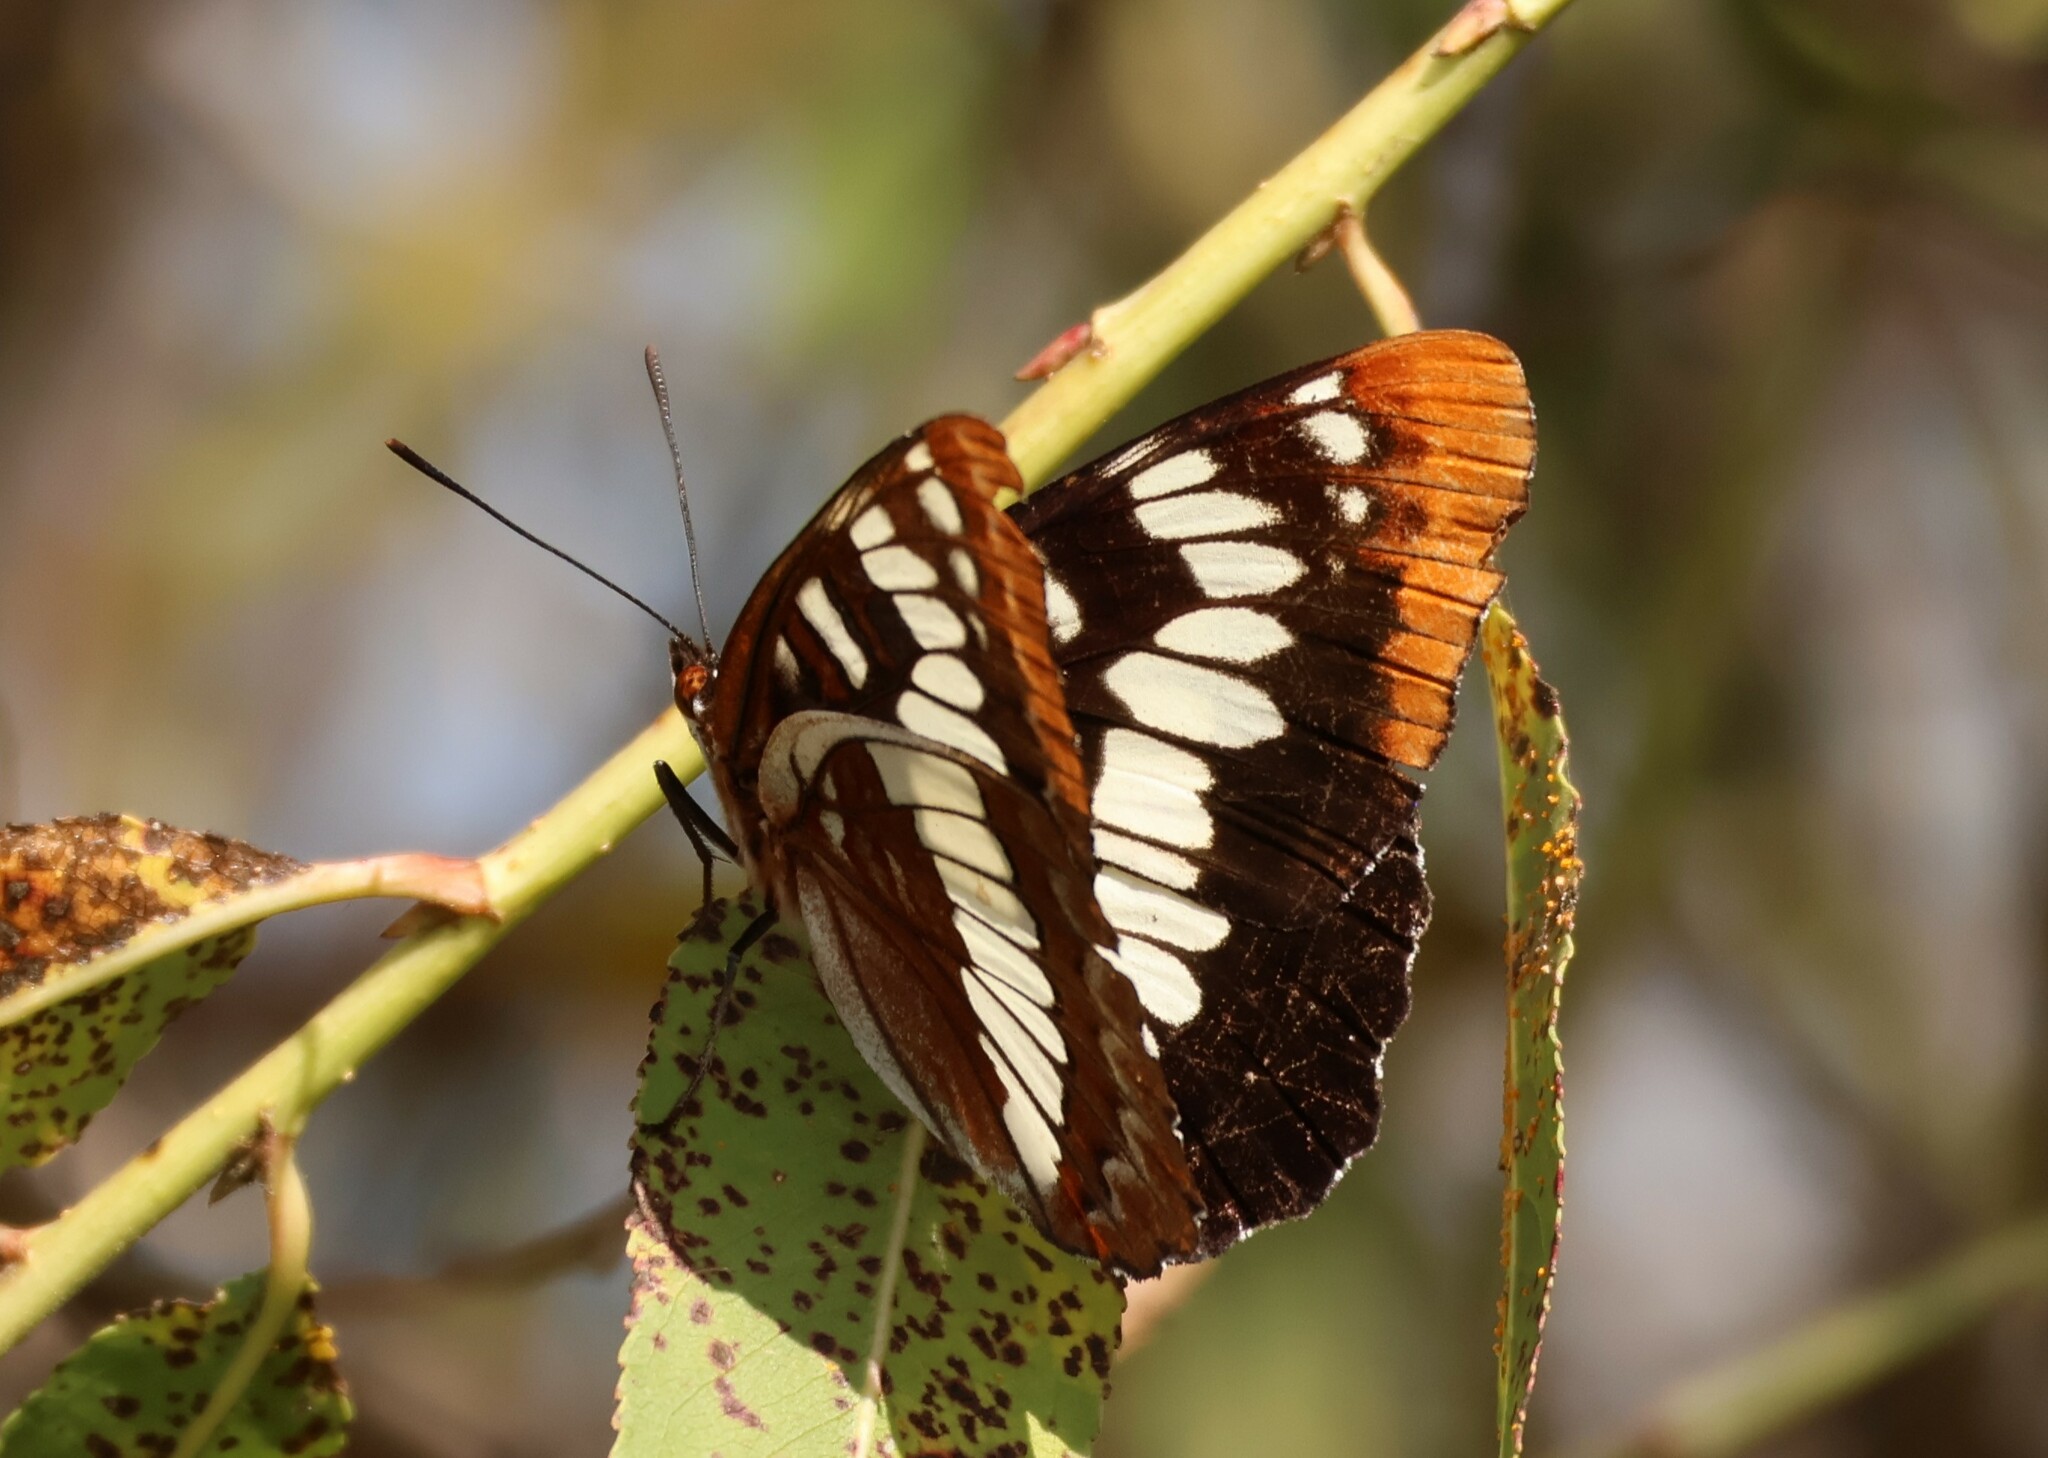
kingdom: Animalia
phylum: Arthropoda
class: Insecta
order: Lepidoptera
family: Nymphalidae
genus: Limenitis
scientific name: Limenitis lorquini
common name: Lorquin's admiral
